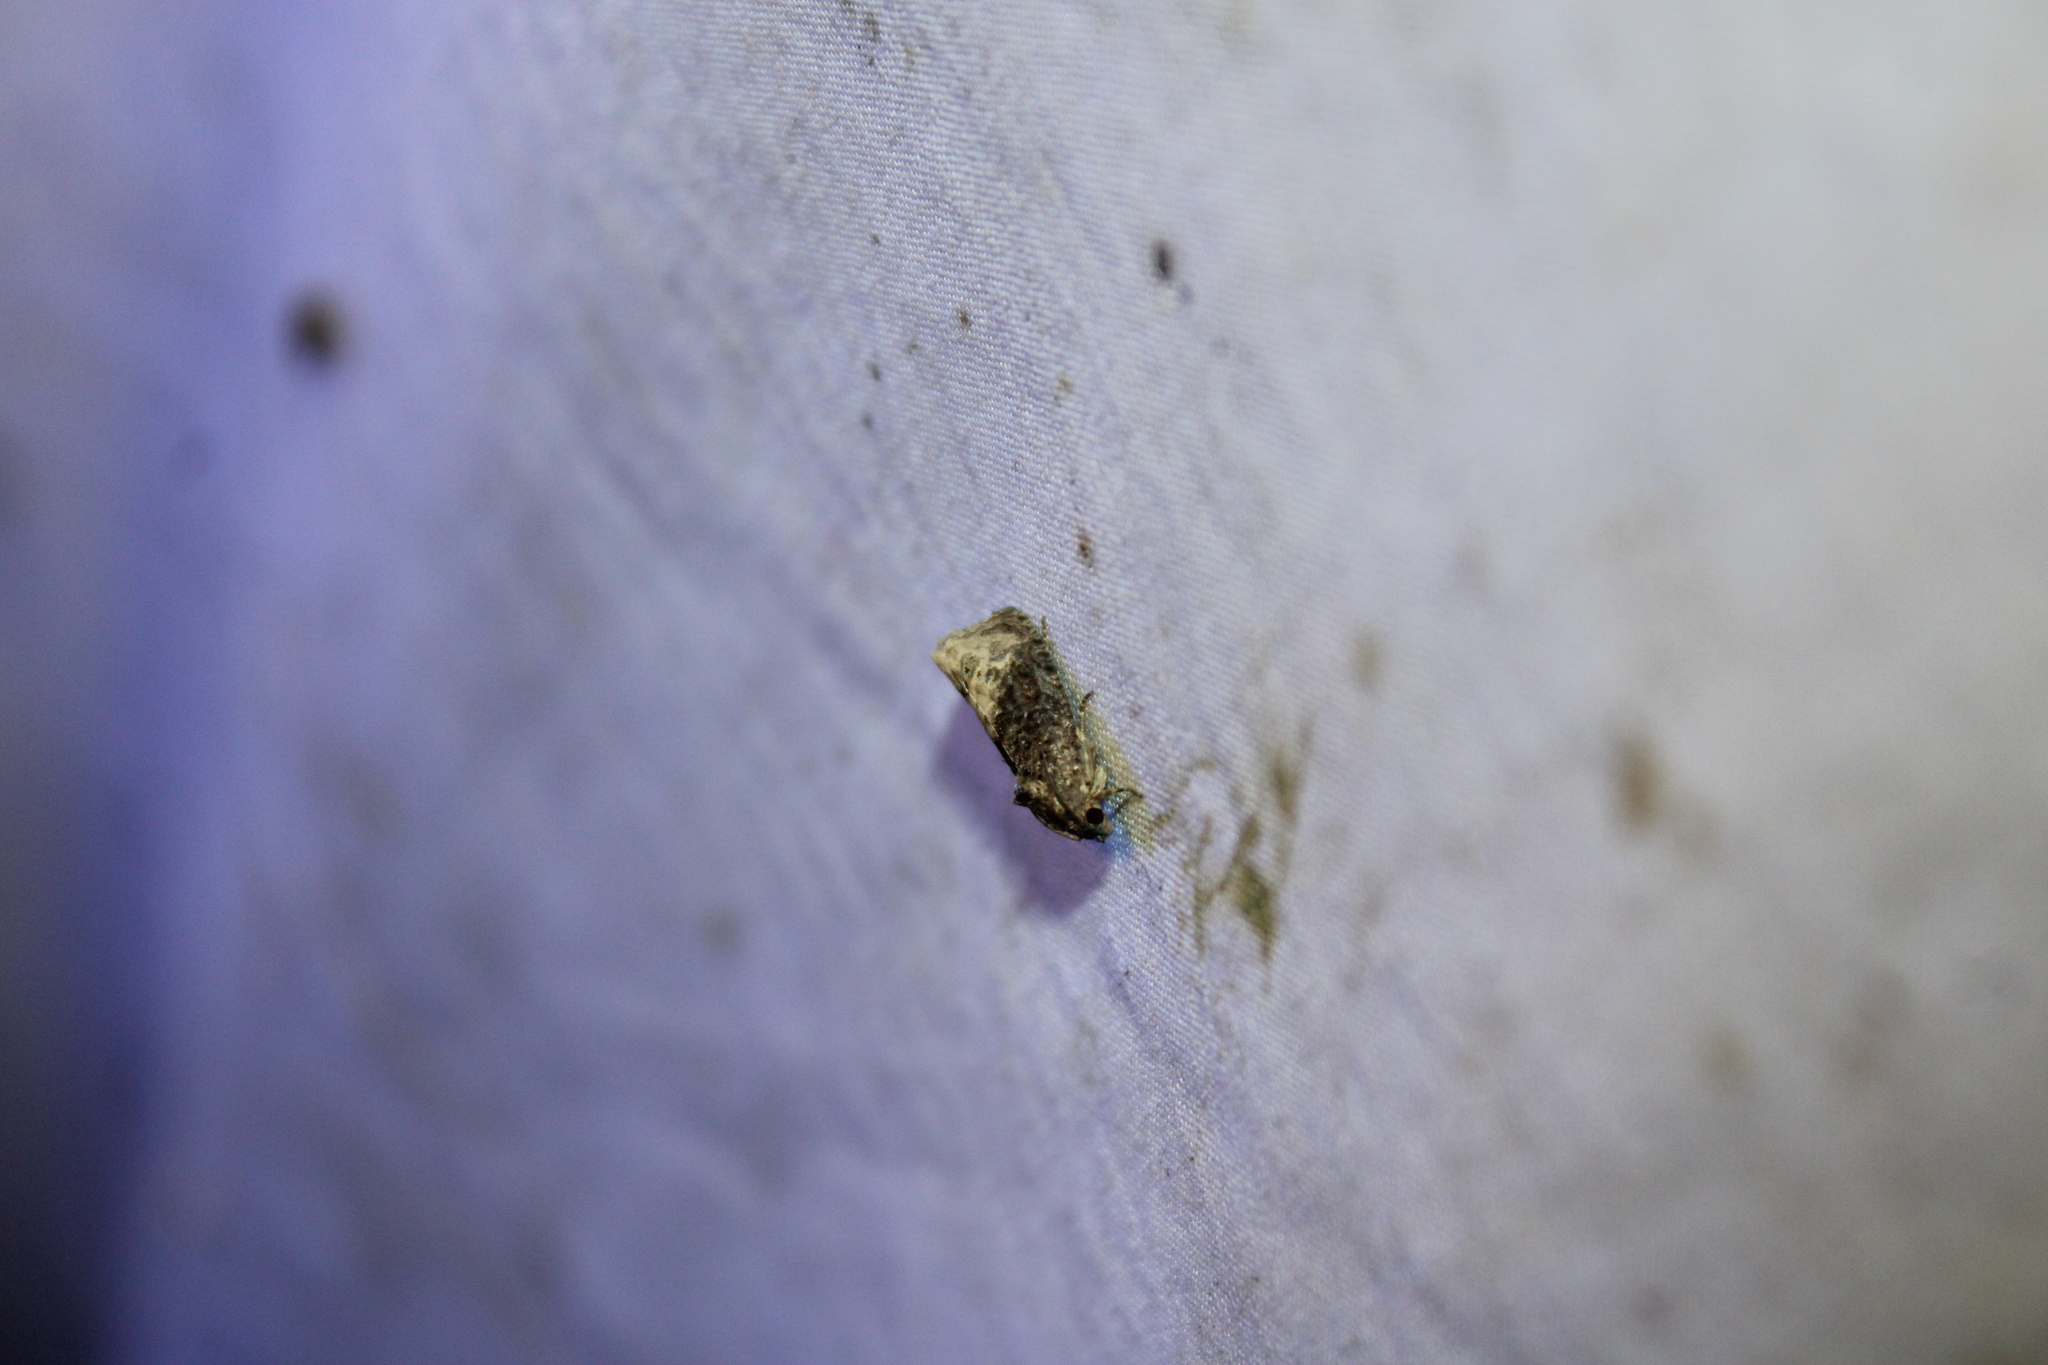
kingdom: Animalia
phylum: Arthropoda
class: Insecta
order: Lepidoptera
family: Tortricidae
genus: Ecdytolopha
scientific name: Ecdytolopha insiticiana
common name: Locust twig borer moth
